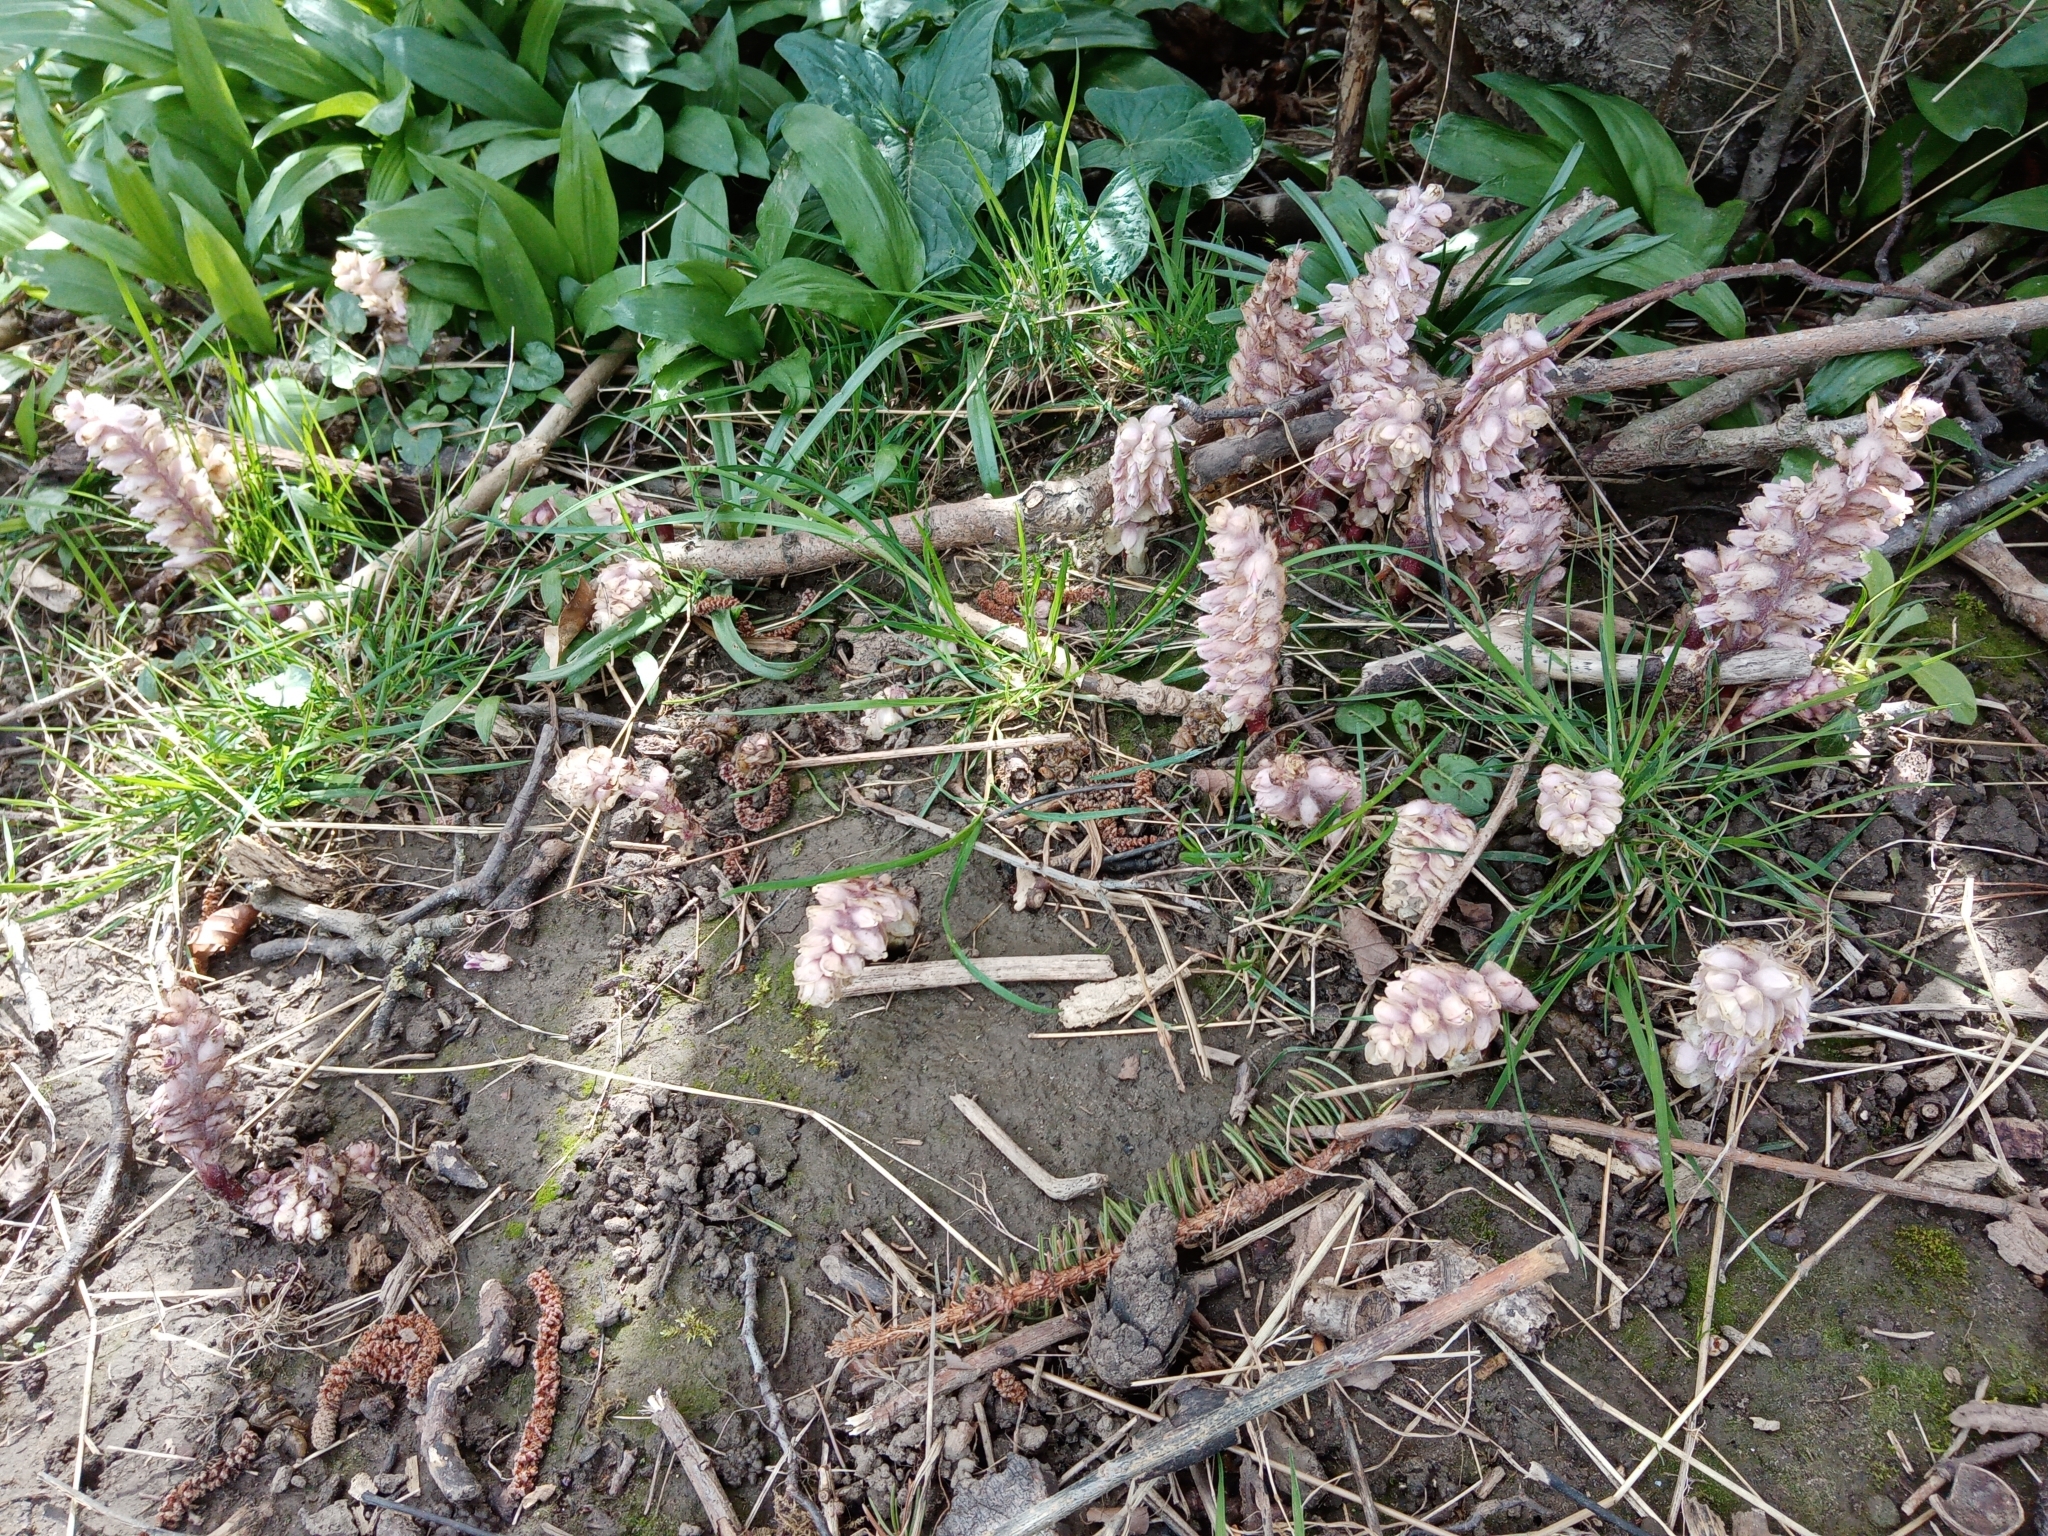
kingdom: Plantae
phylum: Tracheophyta
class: Magnoliopsida
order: Lamiales
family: Orobanchaceae
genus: Lathraea
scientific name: Lathraea squamaria
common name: Toothwort
